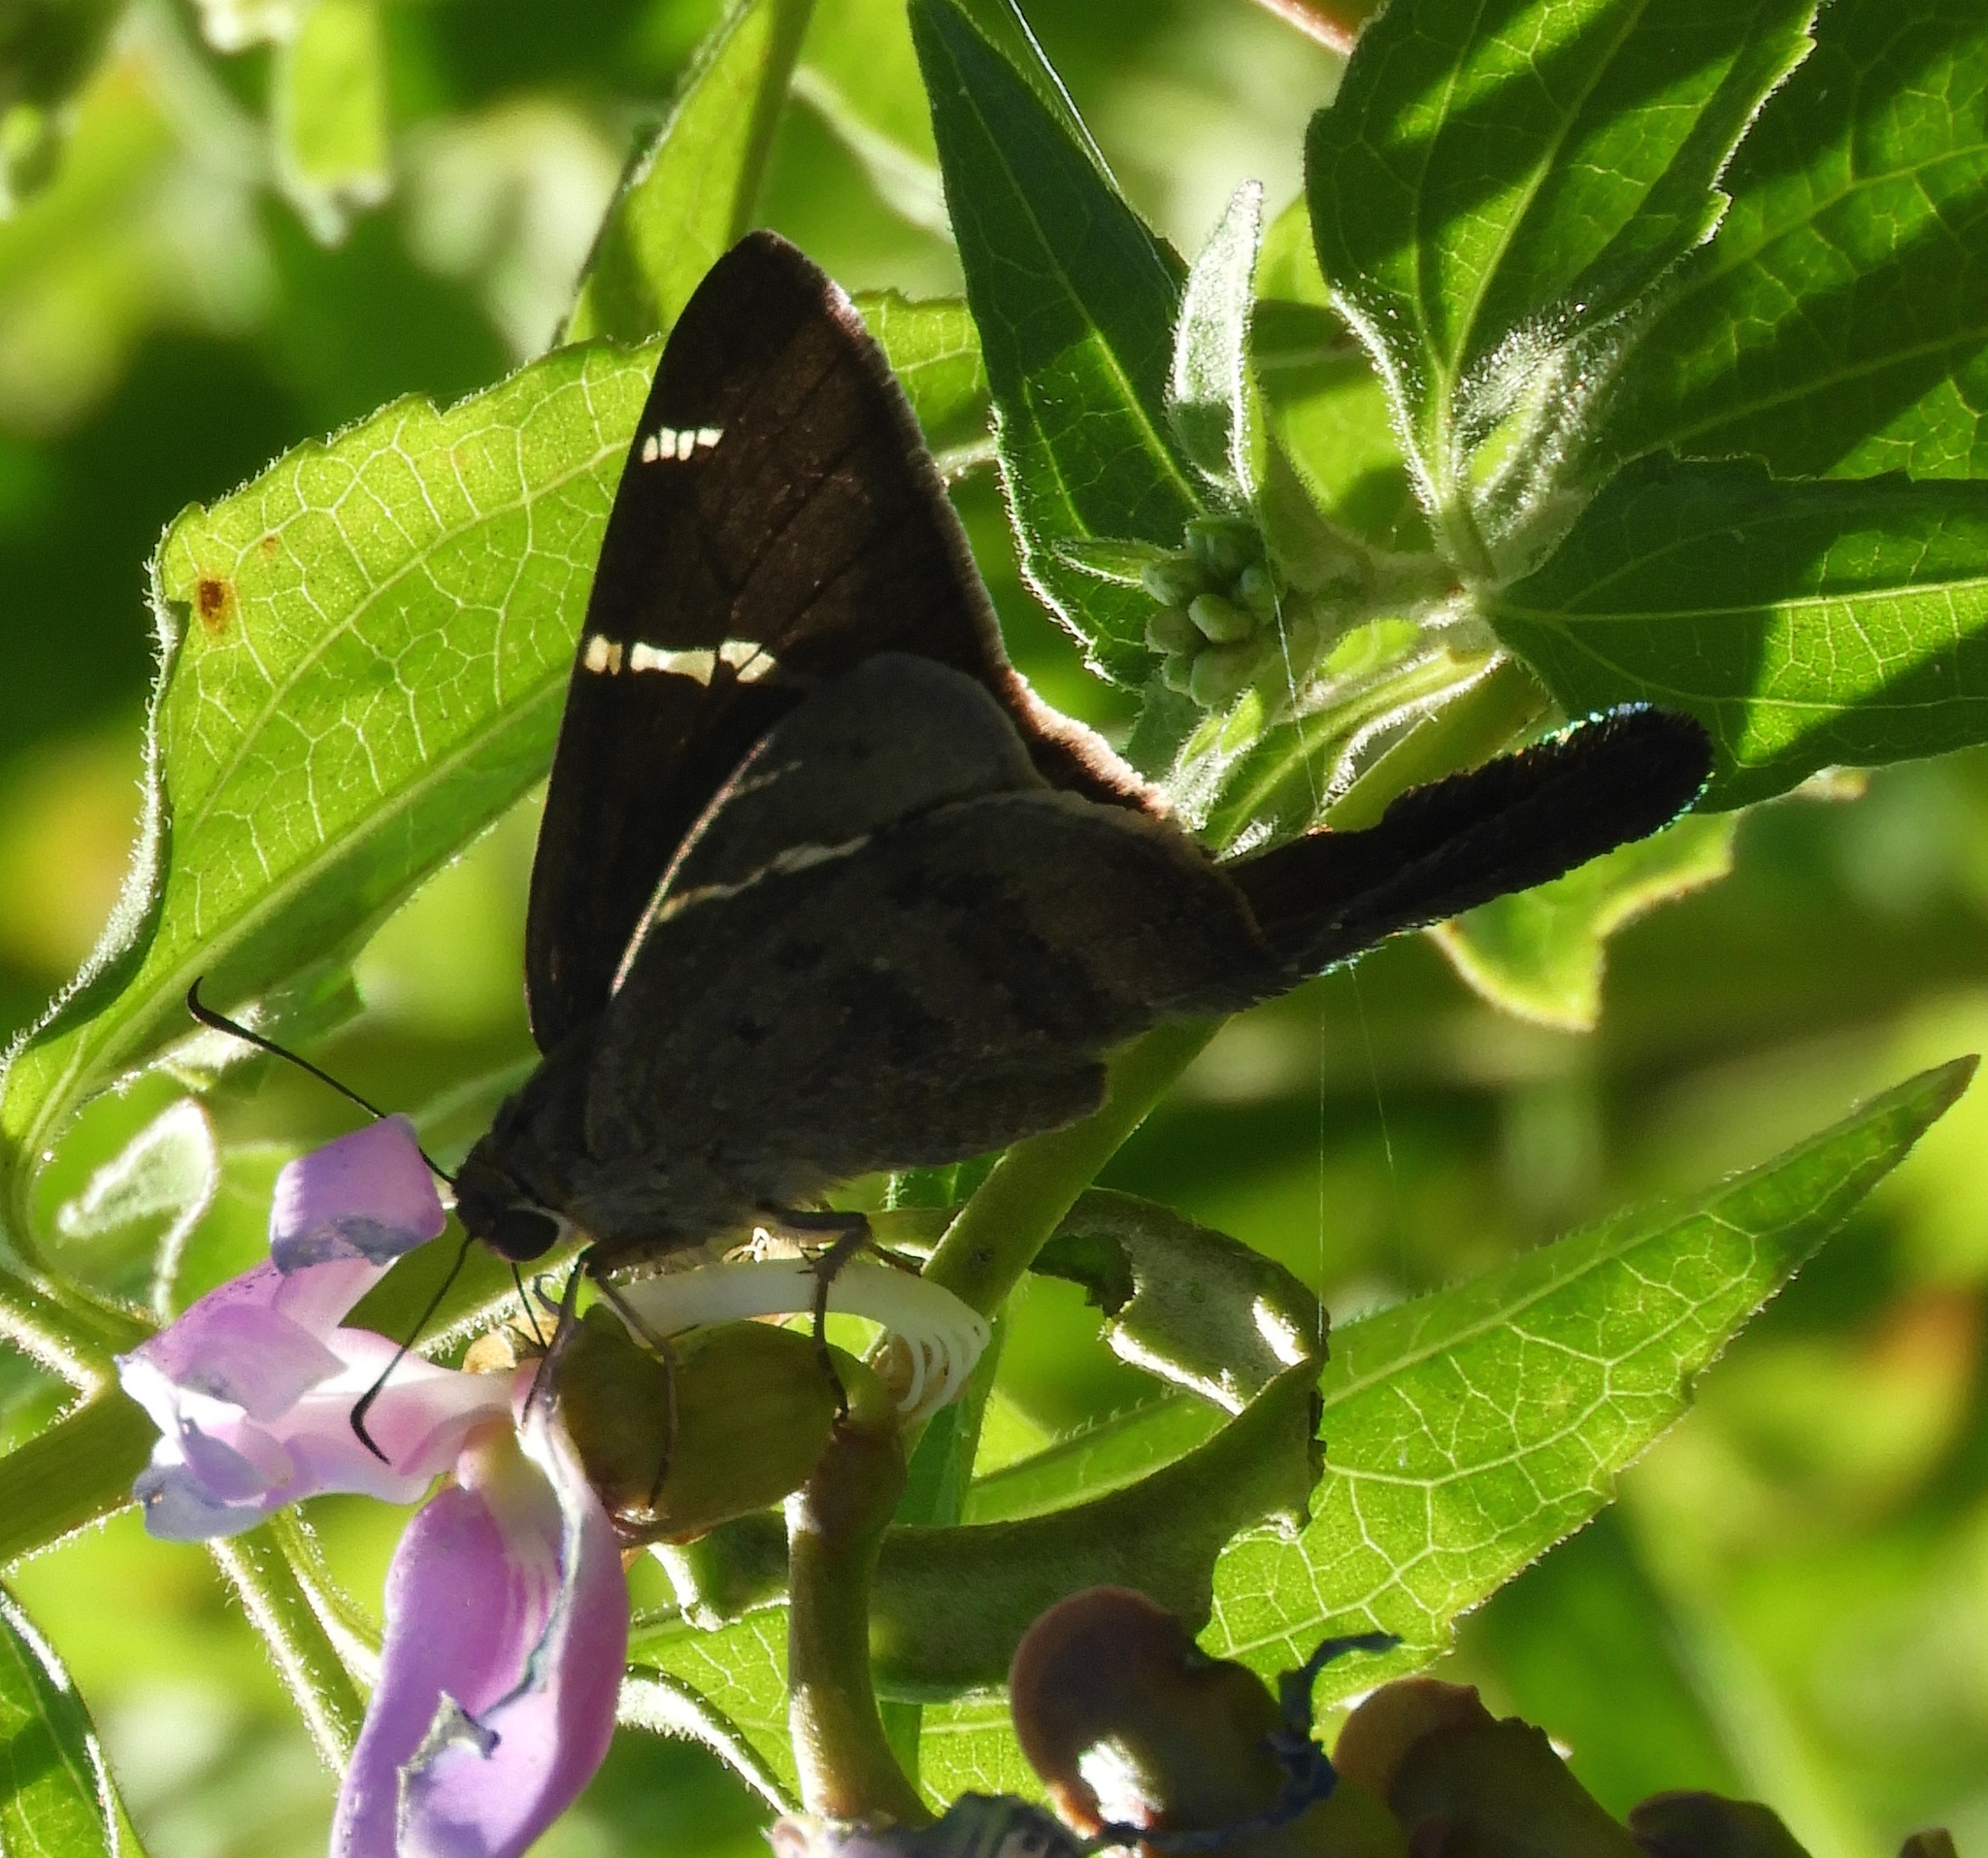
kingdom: Animalia
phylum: Arthropoda
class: Insecta
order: Lepidoptera
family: Hesperiidae
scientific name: Hesperiidae
